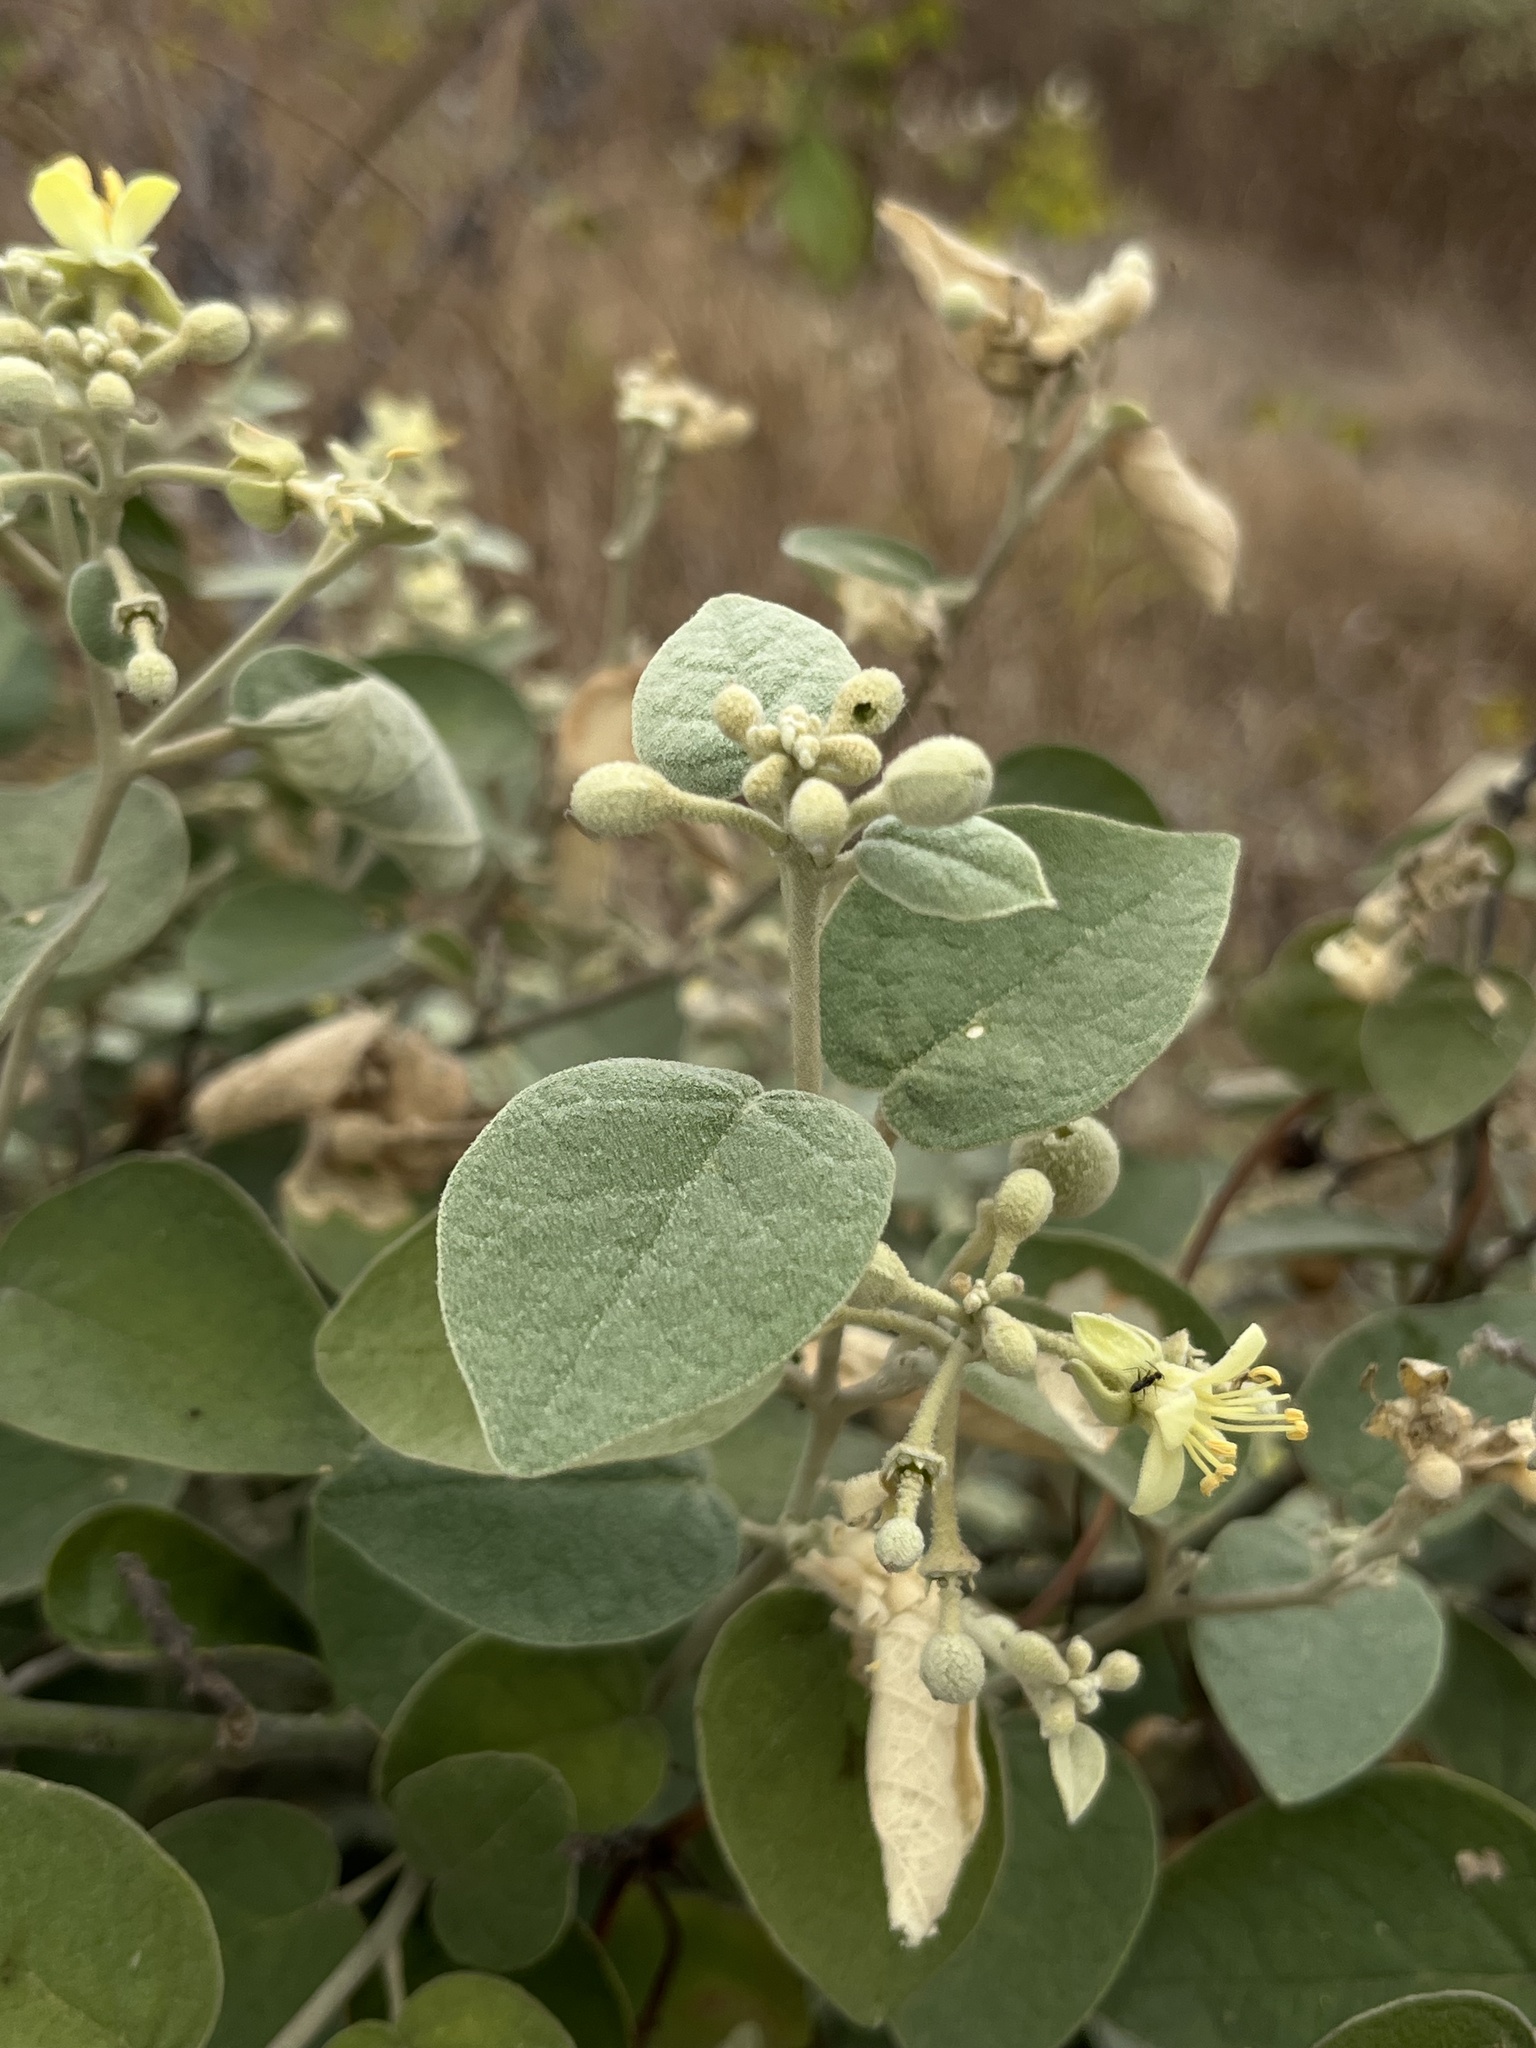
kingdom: Plantae
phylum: Tracheophyta
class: Magnoliopsida
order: Brassicales
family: Capparaceae
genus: Capparicordis
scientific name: Capparicordis crotonoides
